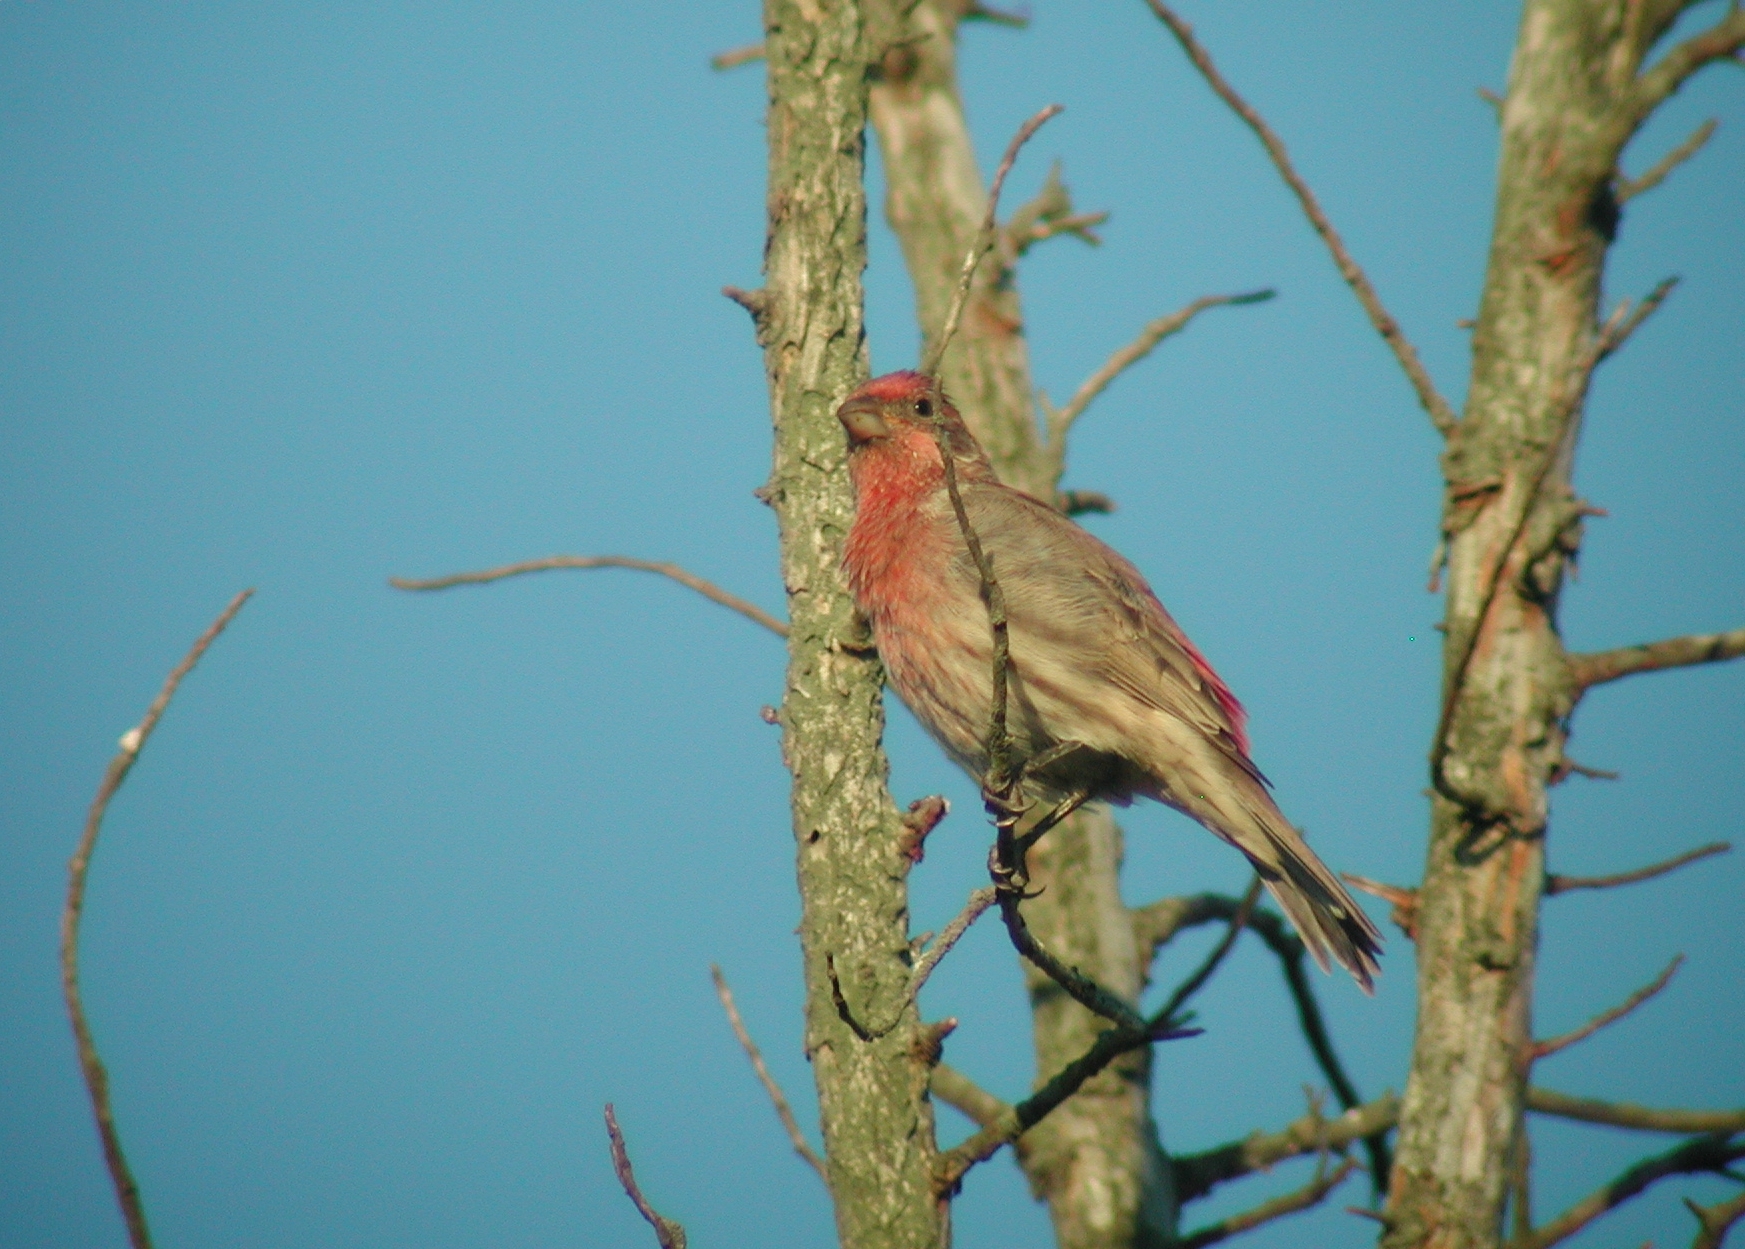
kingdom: Animalia
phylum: Chordata
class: Aves
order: Passeriformes
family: Fringillidae
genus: Haemorhous
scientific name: Haemorhous mexicanus
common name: House finch
